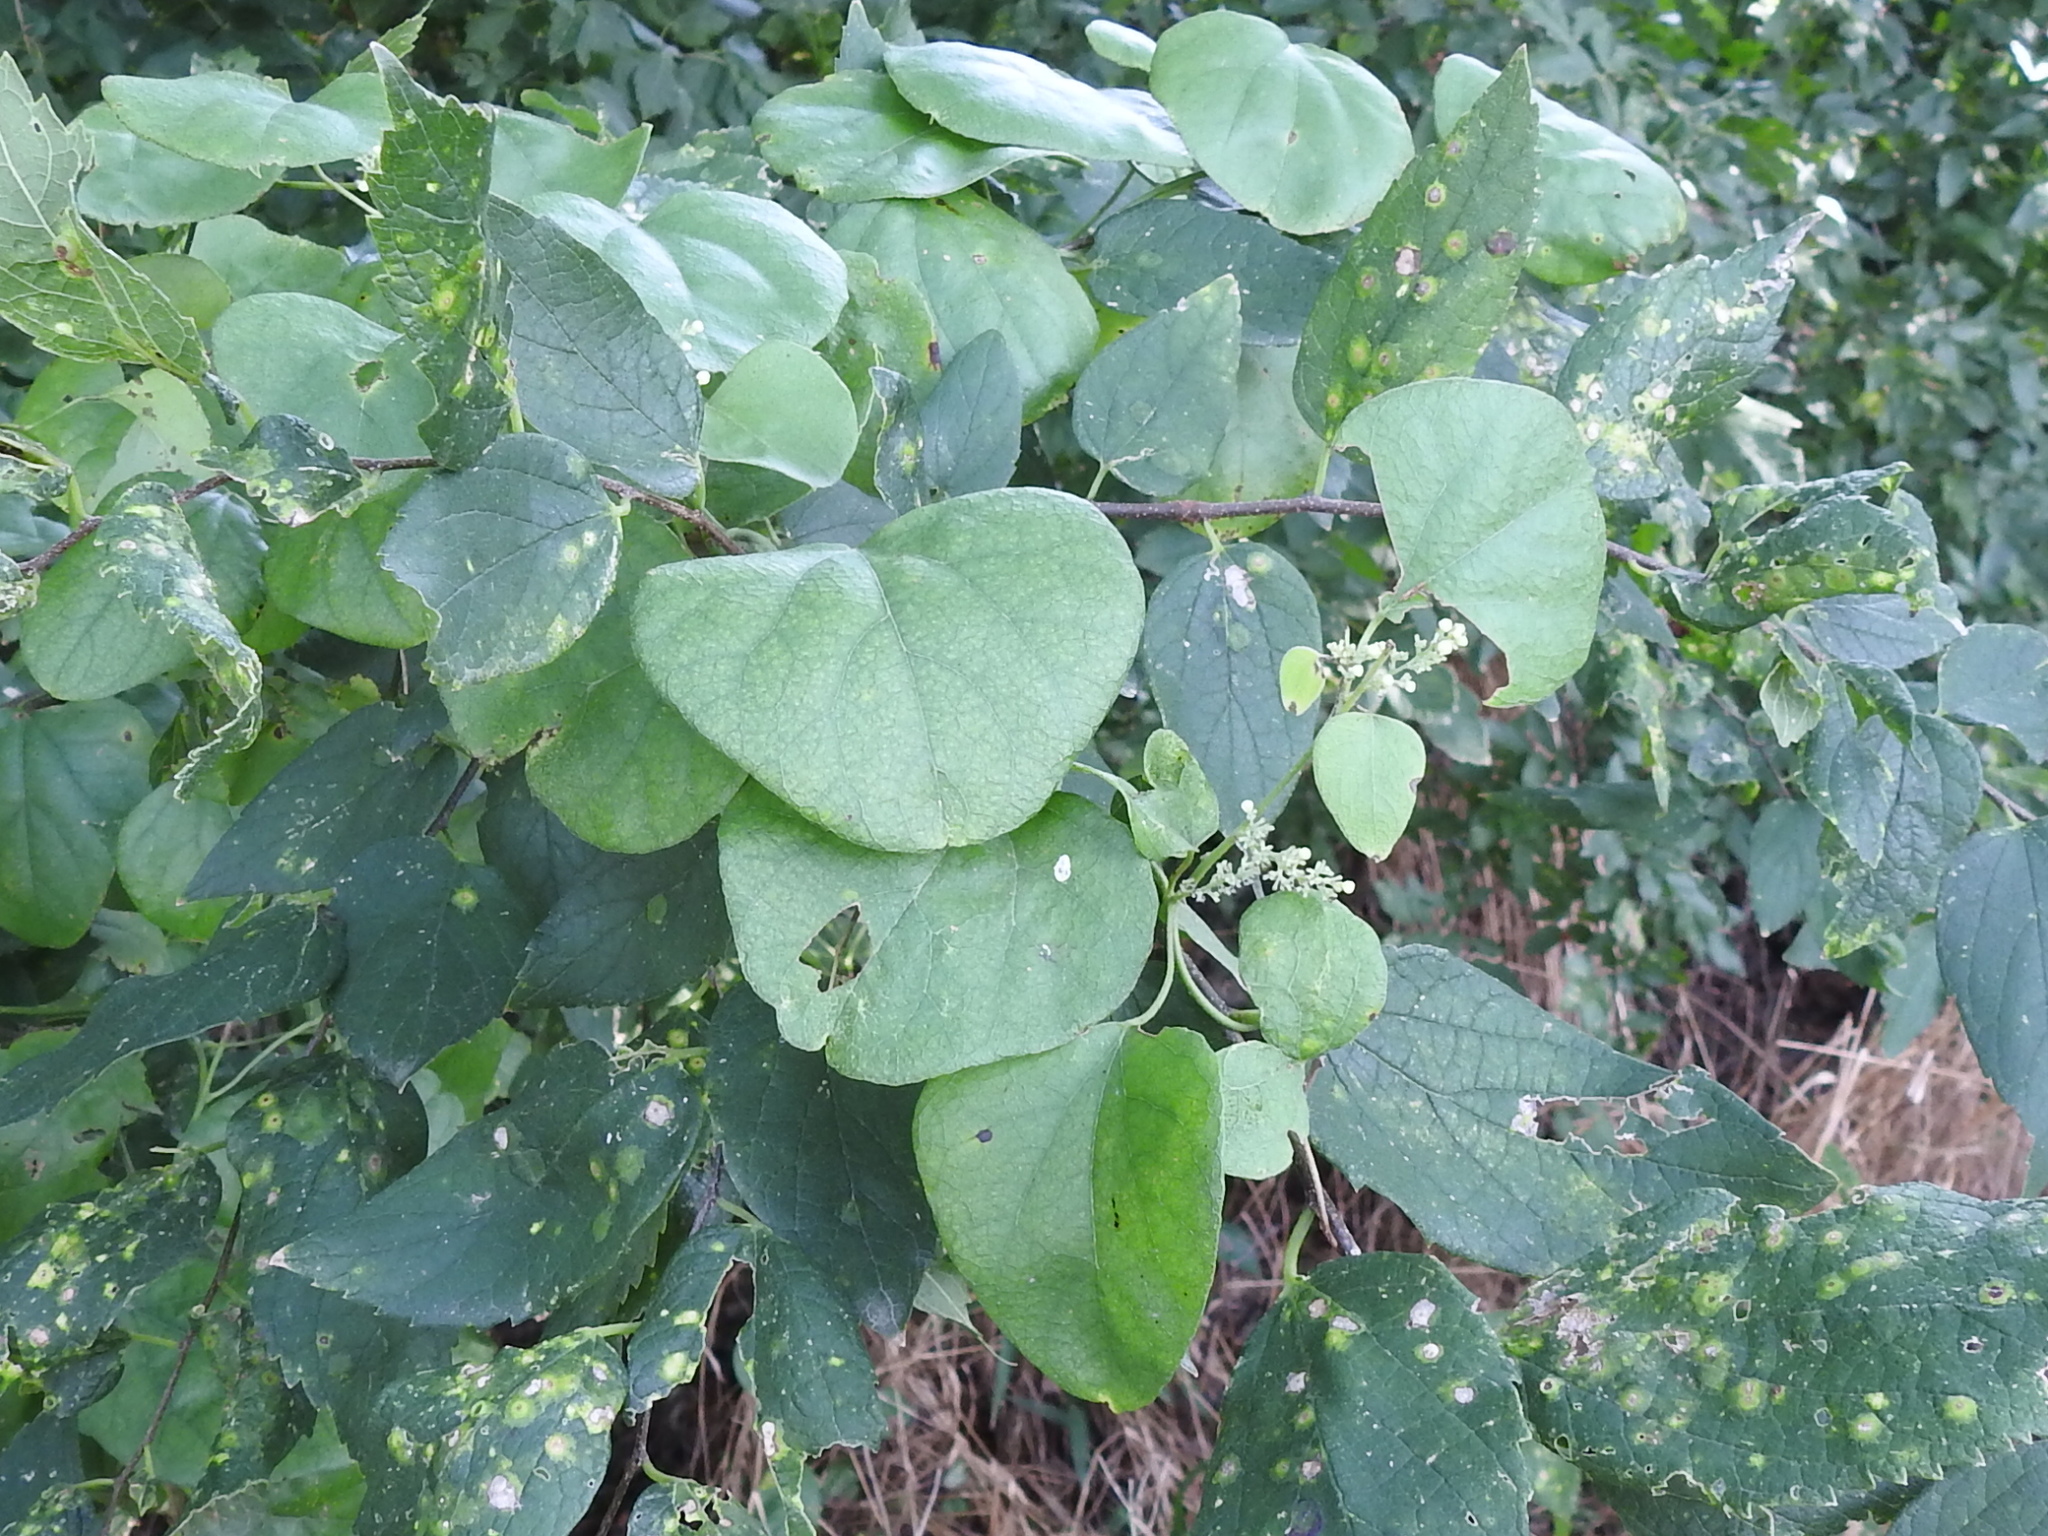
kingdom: Plantae
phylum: Tracheophyta
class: Magnoliopsida
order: Ranunculales
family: Menispermaceae
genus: Cocculus
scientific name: Cocculus carolinus
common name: Carolina moonseed
